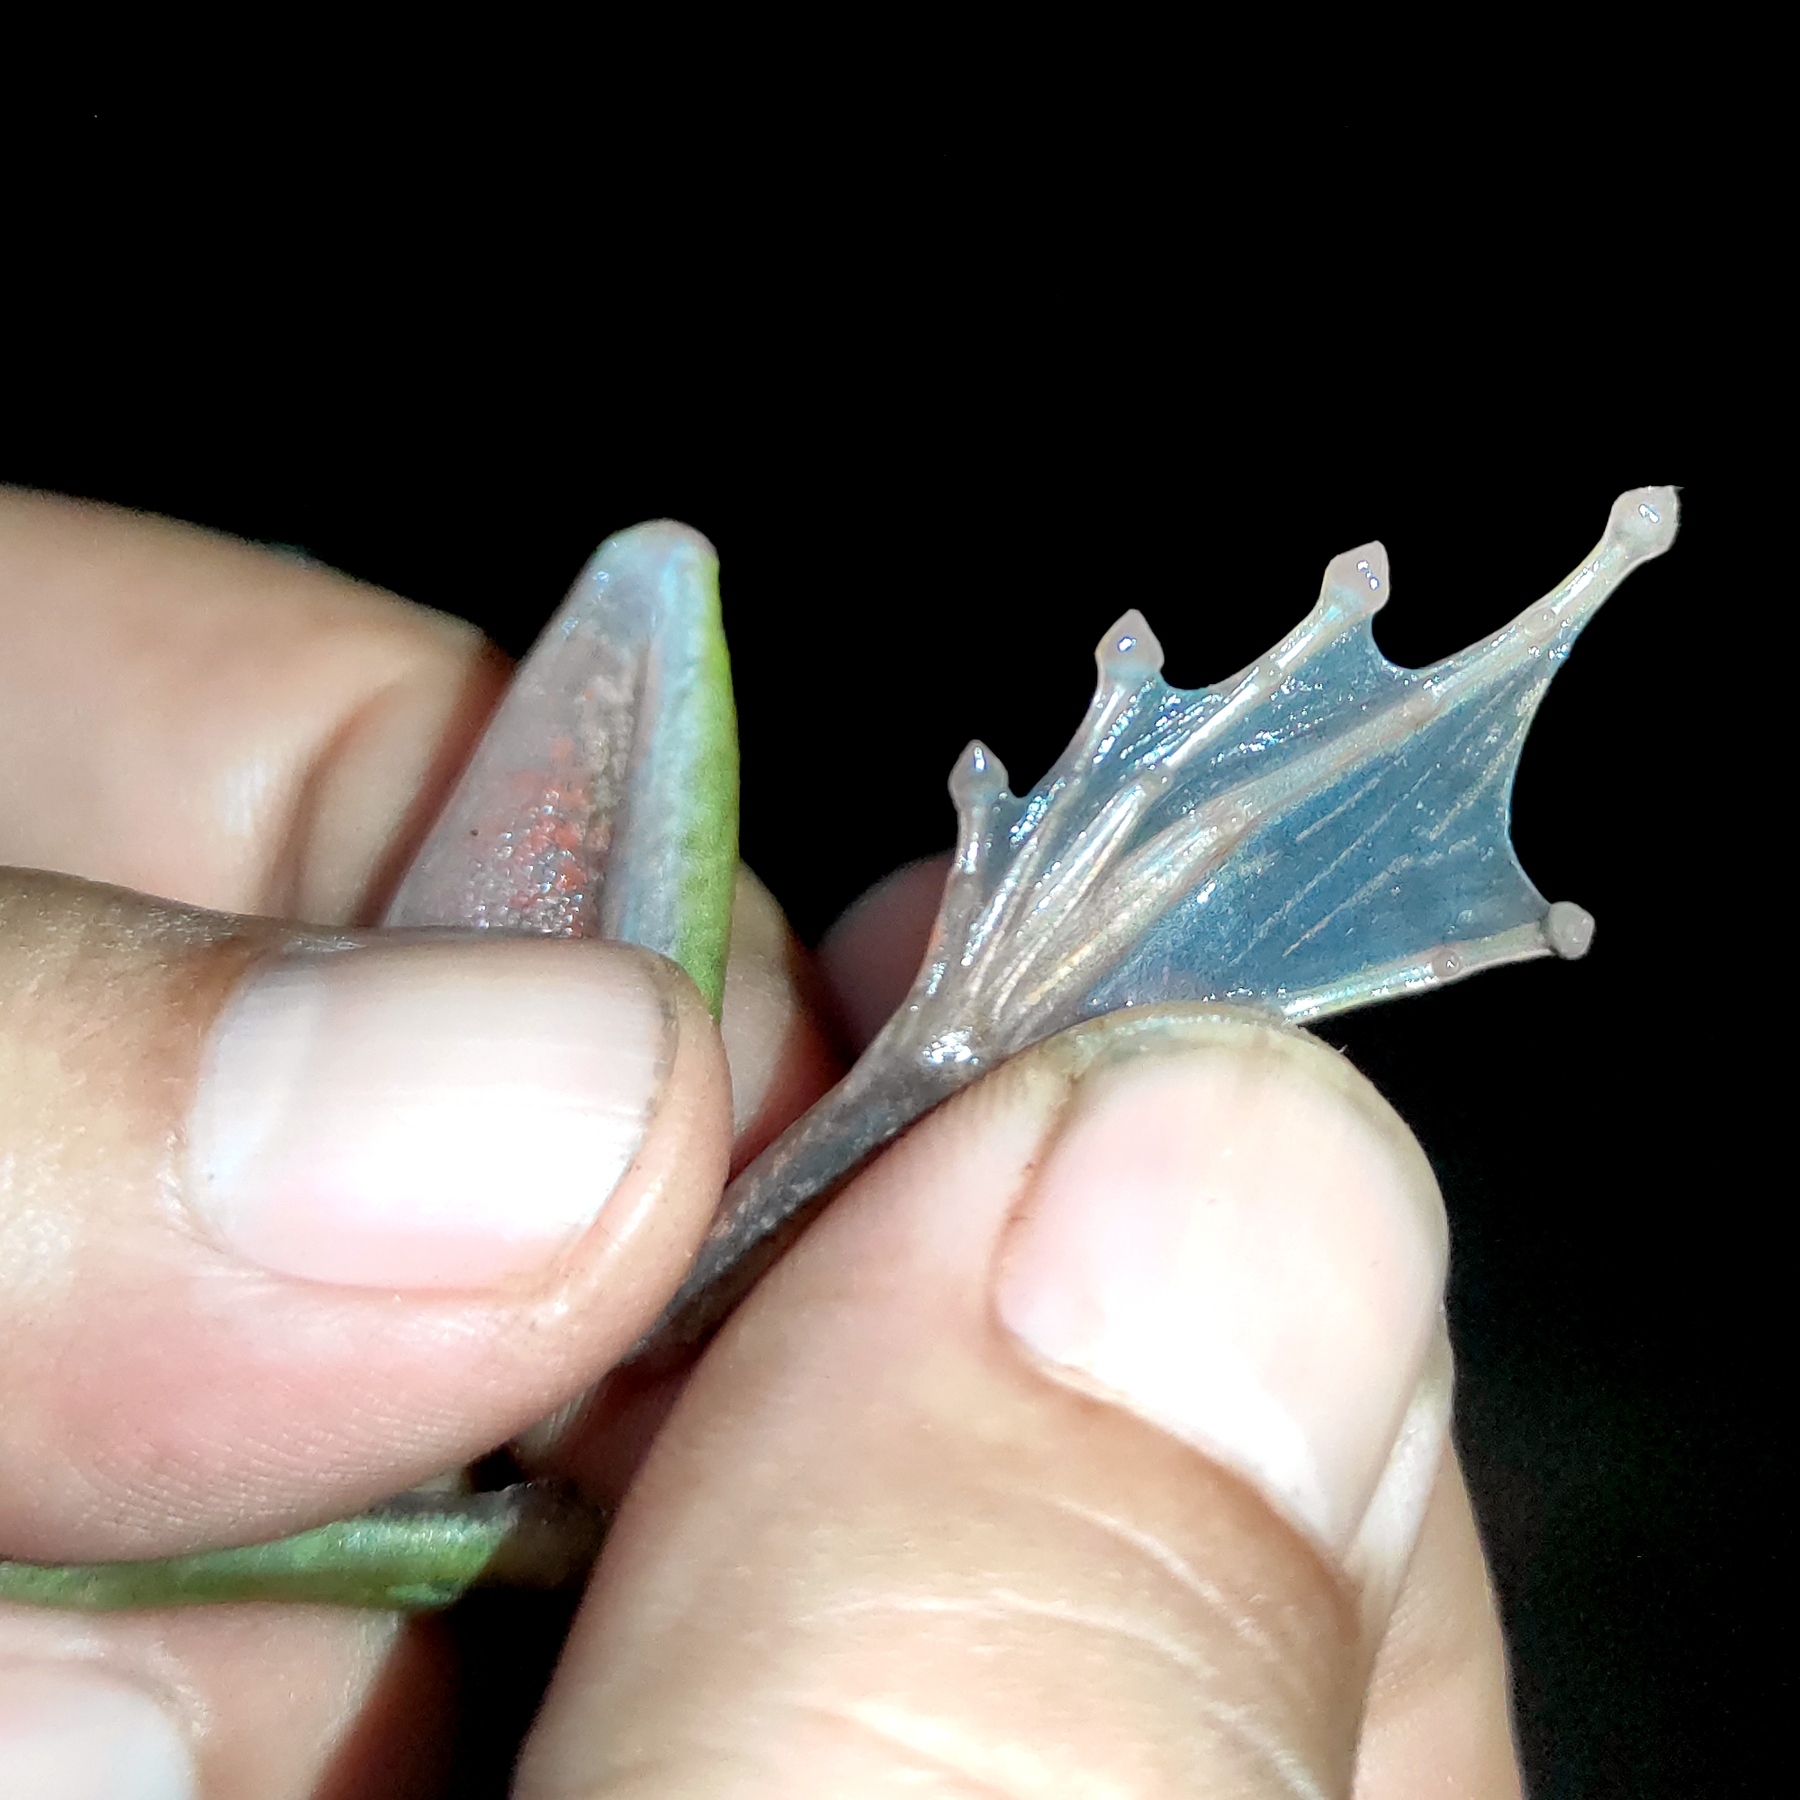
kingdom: Animalia
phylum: Chordata
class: Amphibia
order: Anura
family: Ranidae
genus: Chalcorana
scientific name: Chalcorana megalonesa
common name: Large white-lipped frog
